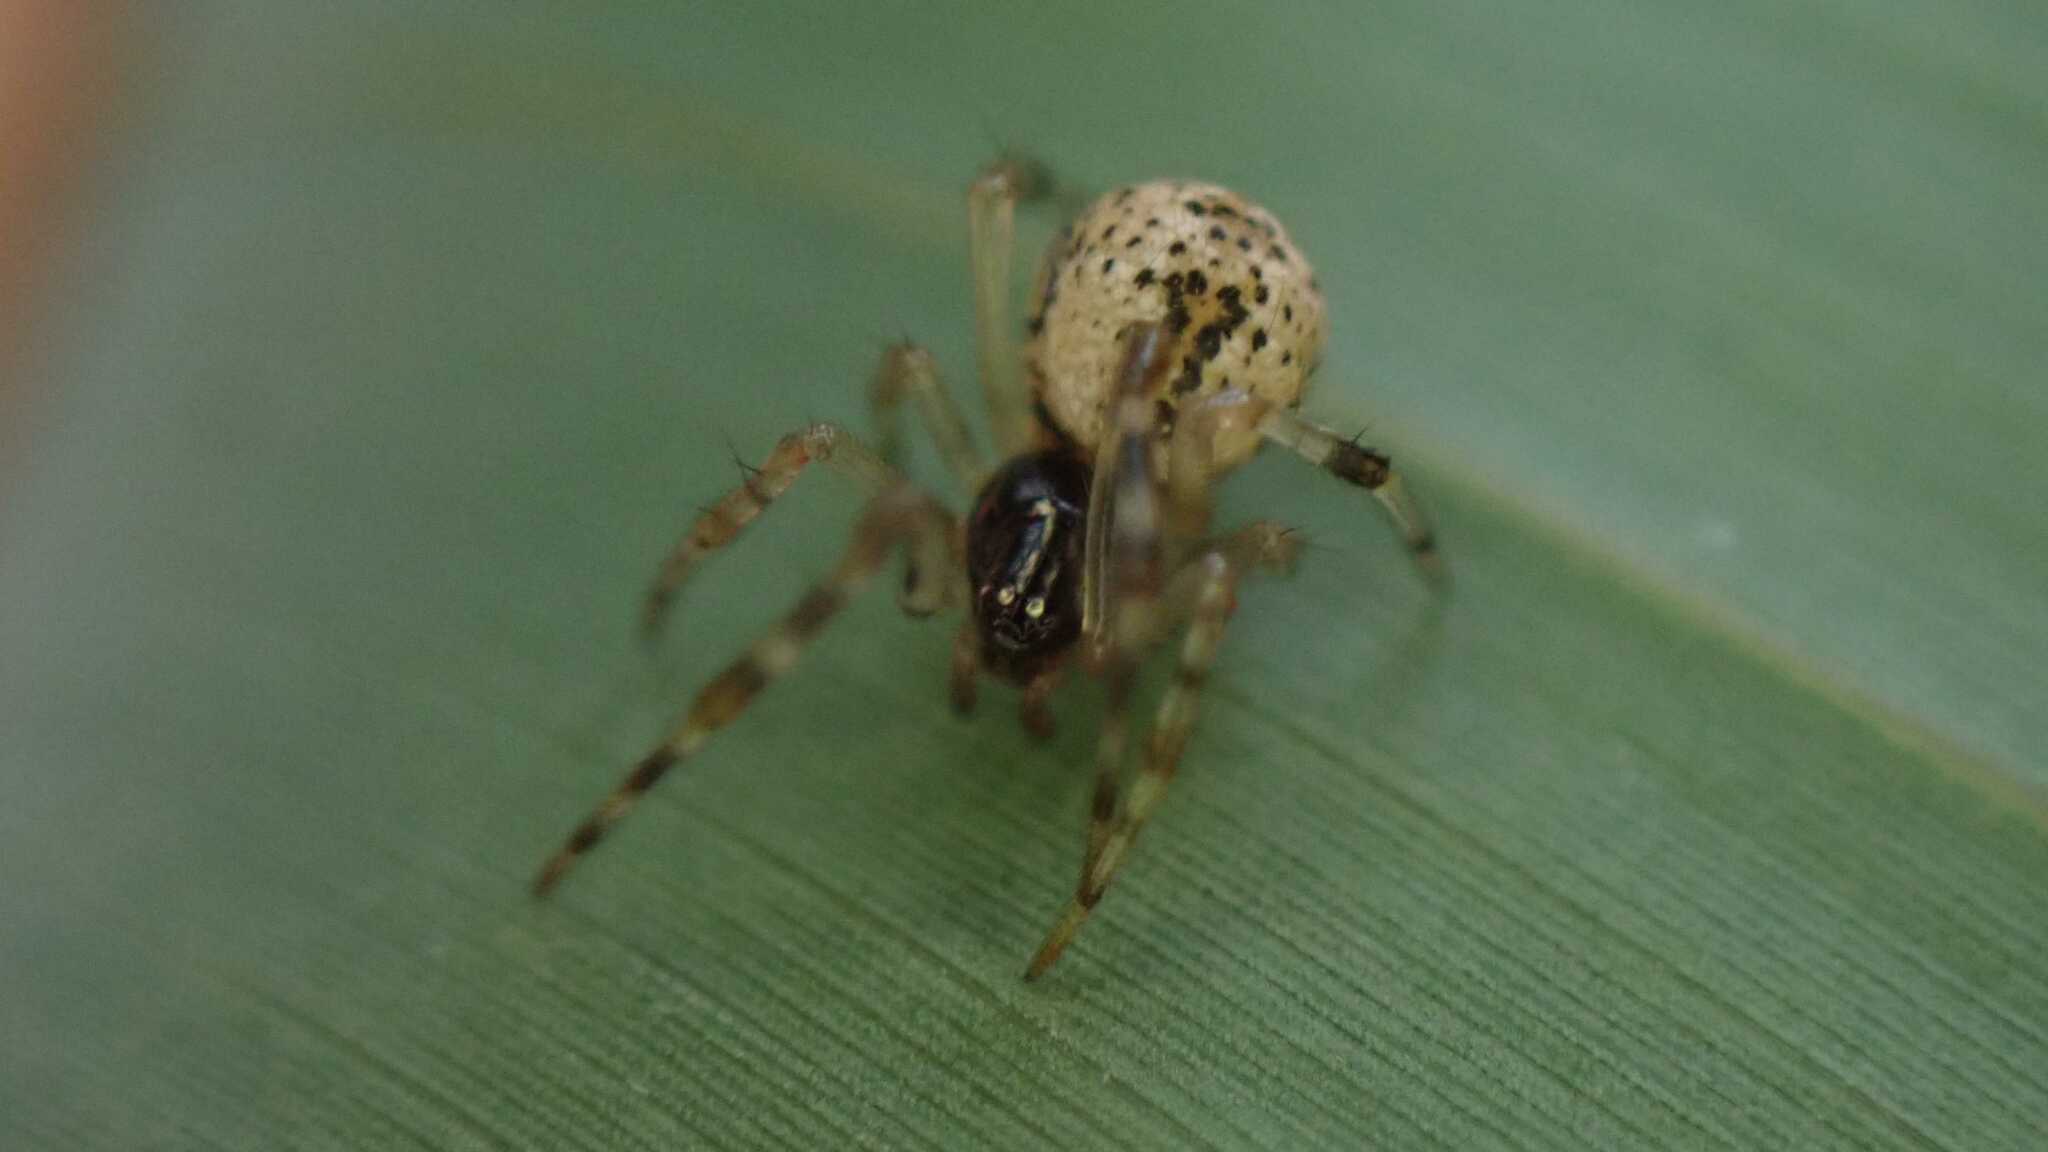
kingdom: Animalia
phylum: Arthropoda
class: Arachnida
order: Araneae
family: Theridiidae
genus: Parasteatoda
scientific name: Parasteatoda tepidariorum
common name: Common house spider
